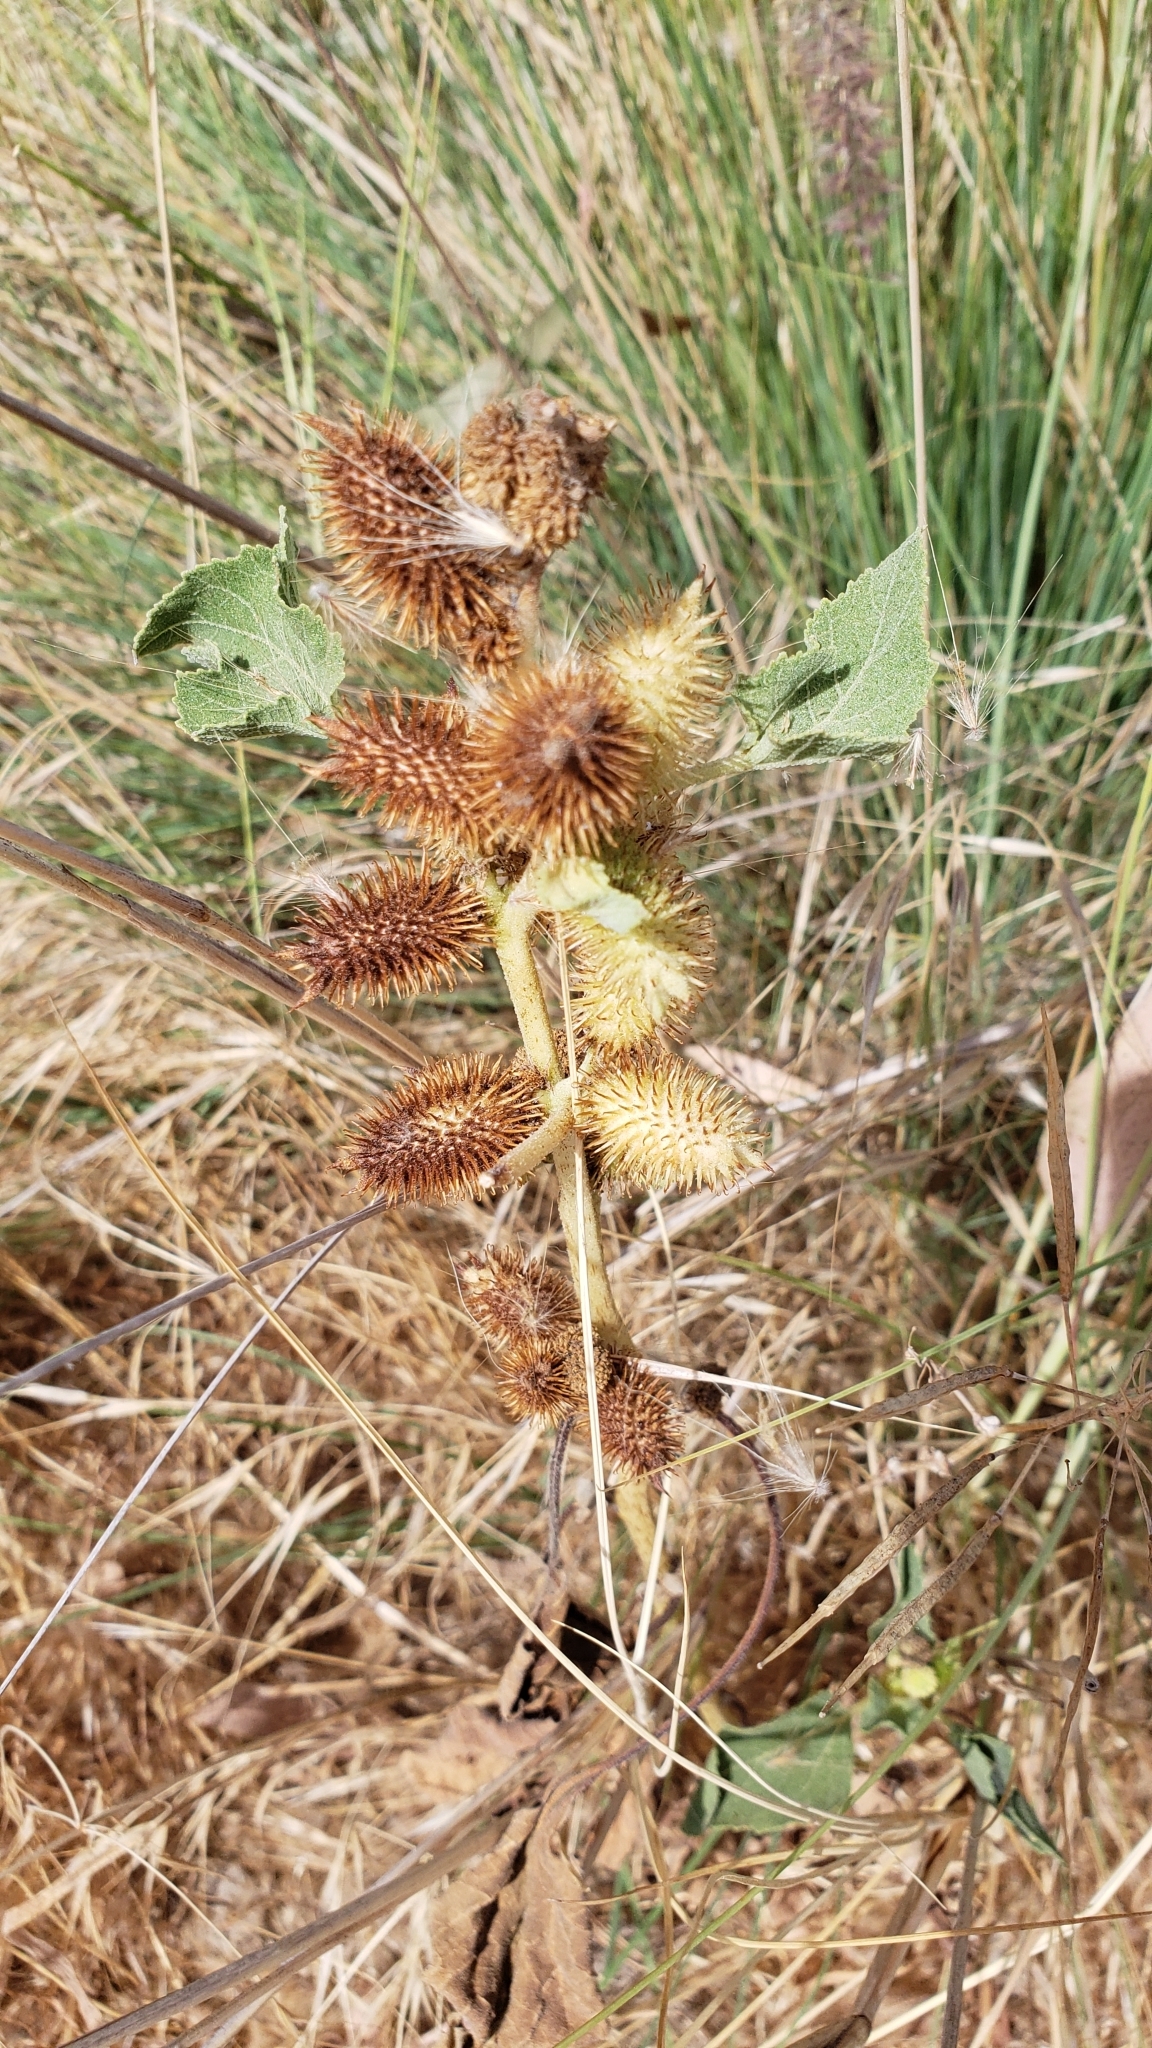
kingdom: Plantae
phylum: Tracheophyta
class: Magnoliopsida
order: Asterales
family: Asteraceae
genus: Xanthium
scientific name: Xanthium strumarium
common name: Rough cocklebur
